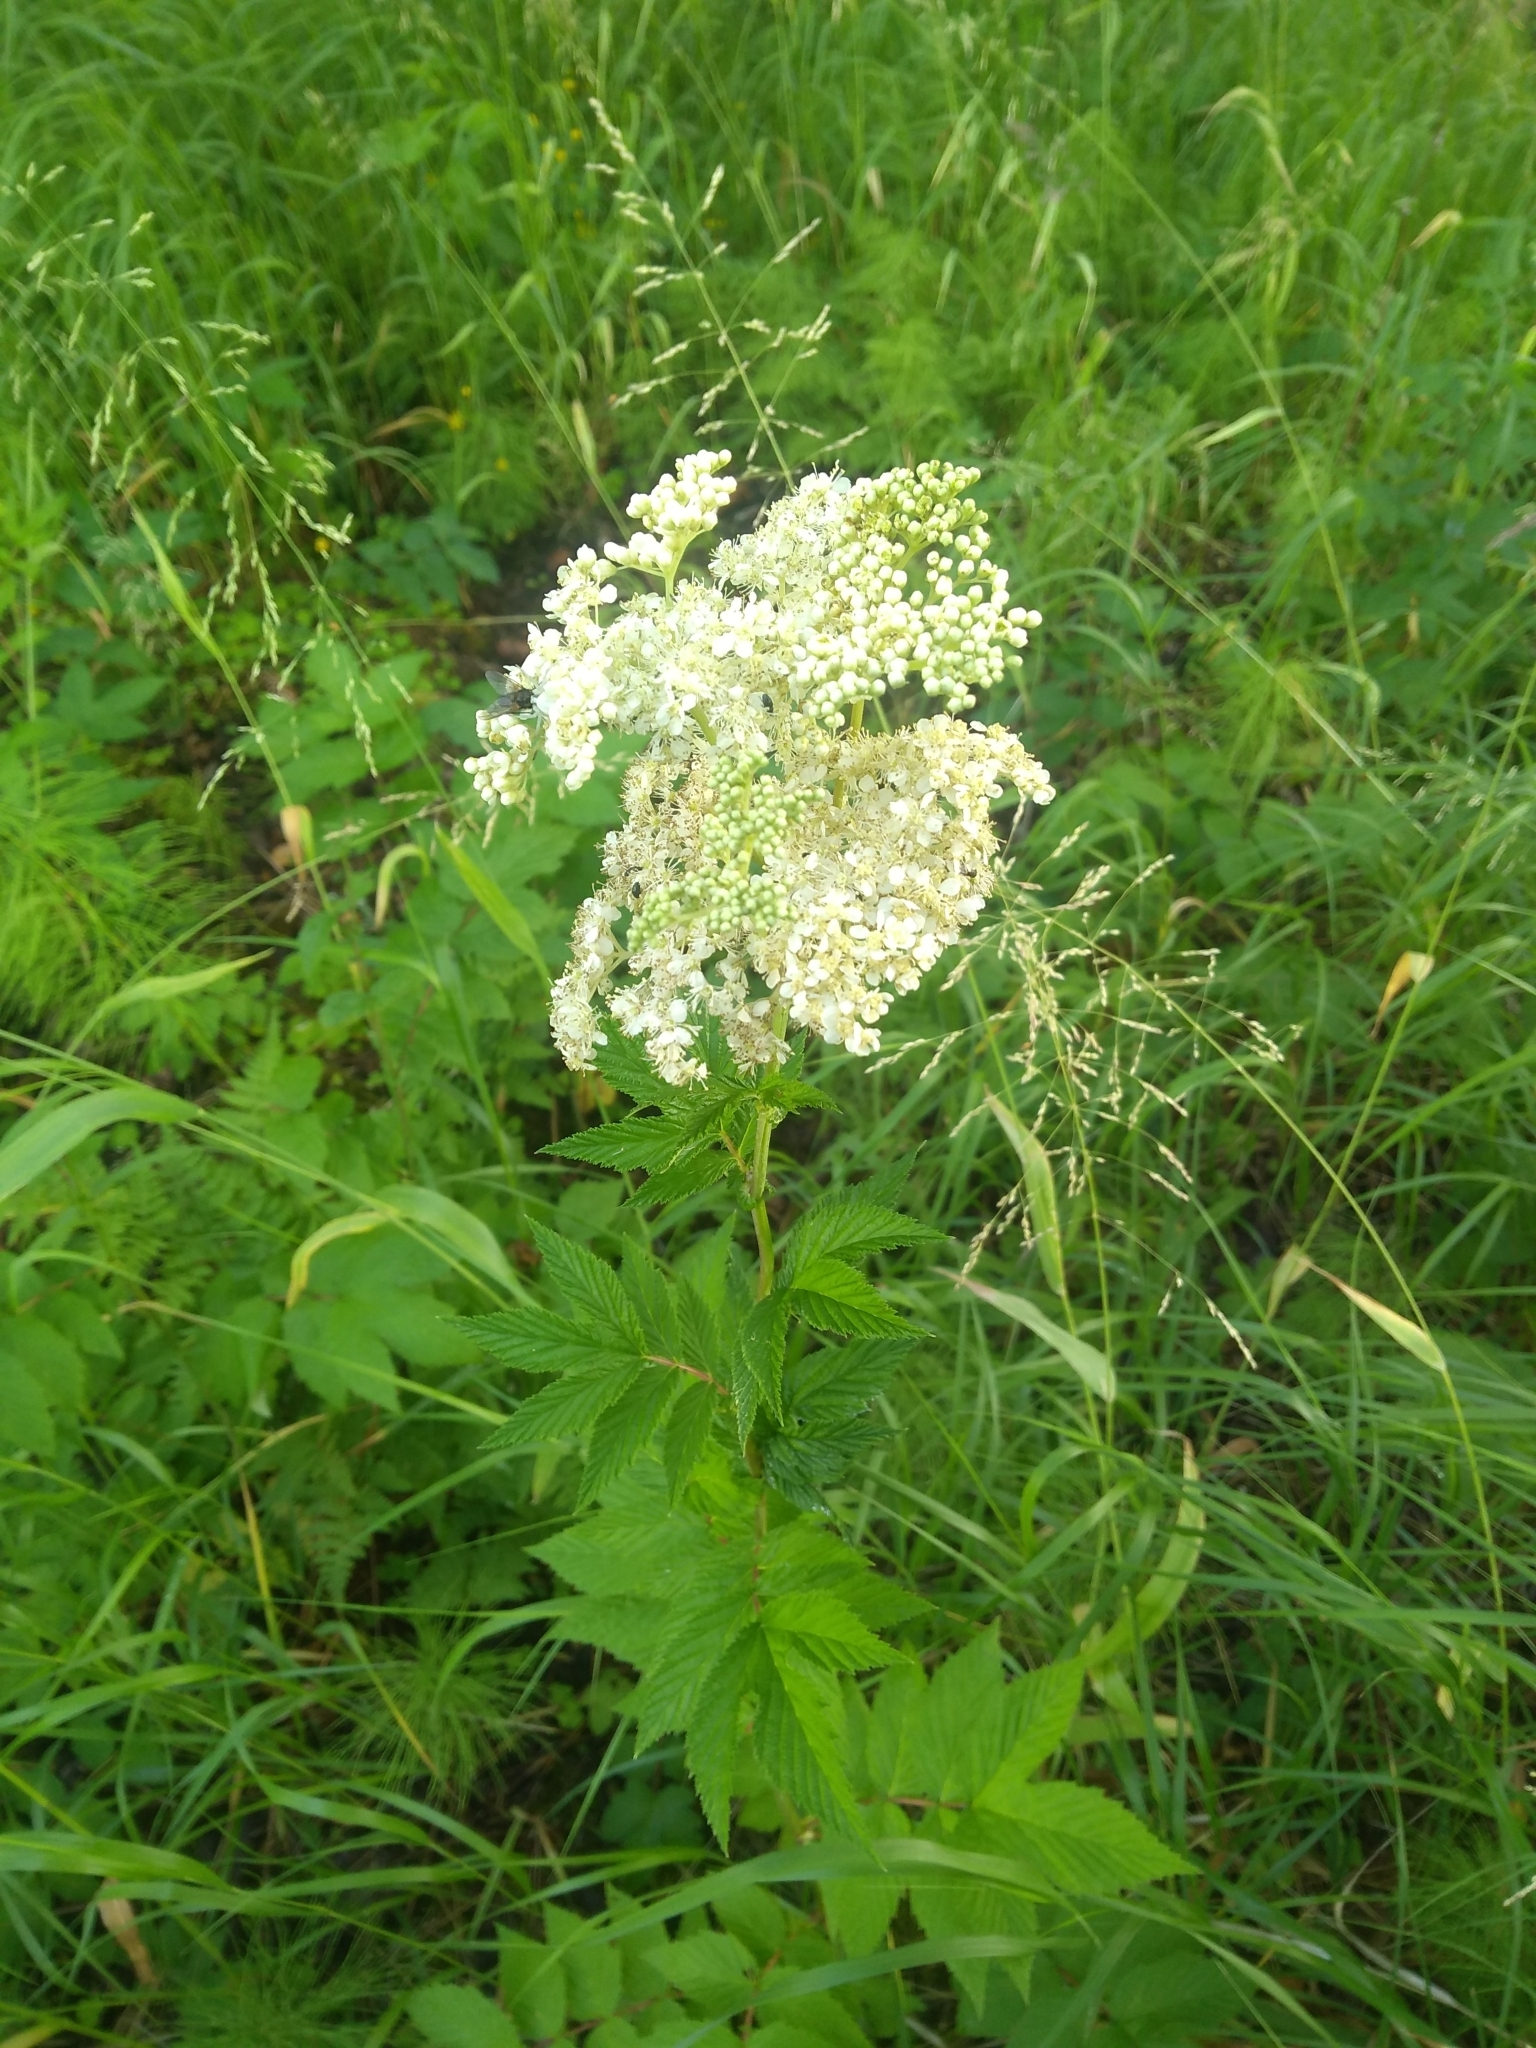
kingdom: Plantae
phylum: Tracheophyta
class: Magnoliopsida
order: Rosales
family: Rosaceae
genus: Filipendula
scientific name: Filipendula ulmaria
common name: Meadowsweet
